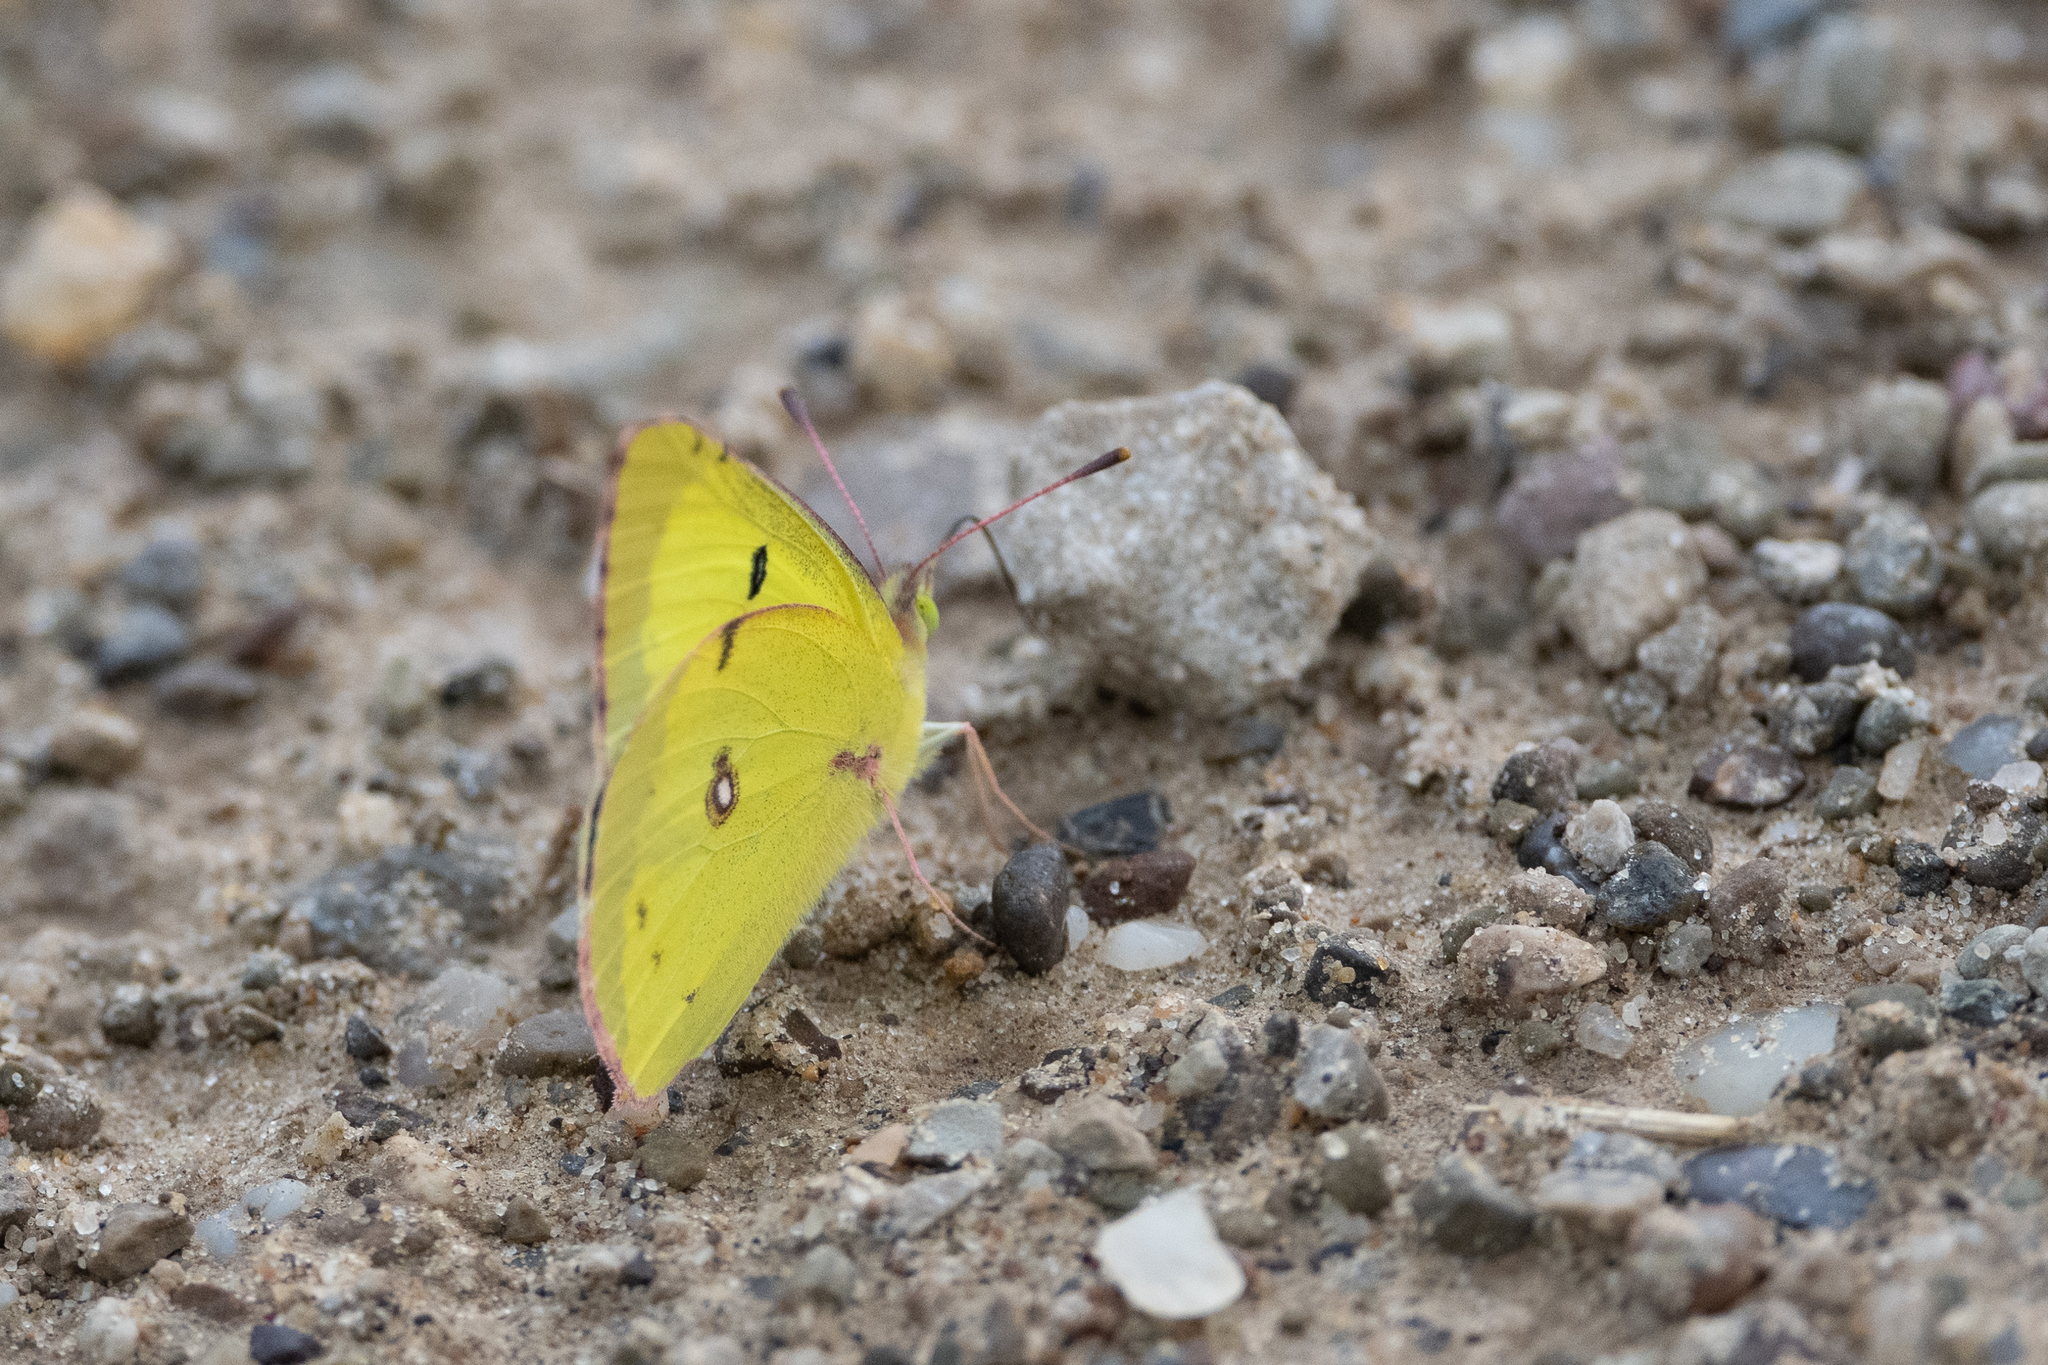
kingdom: Animalia
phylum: Arthropoda
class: Insecta
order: Lepidoptera
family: Pieridae
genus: Colias
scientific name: Colias philodice
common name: Clouded sulphur
